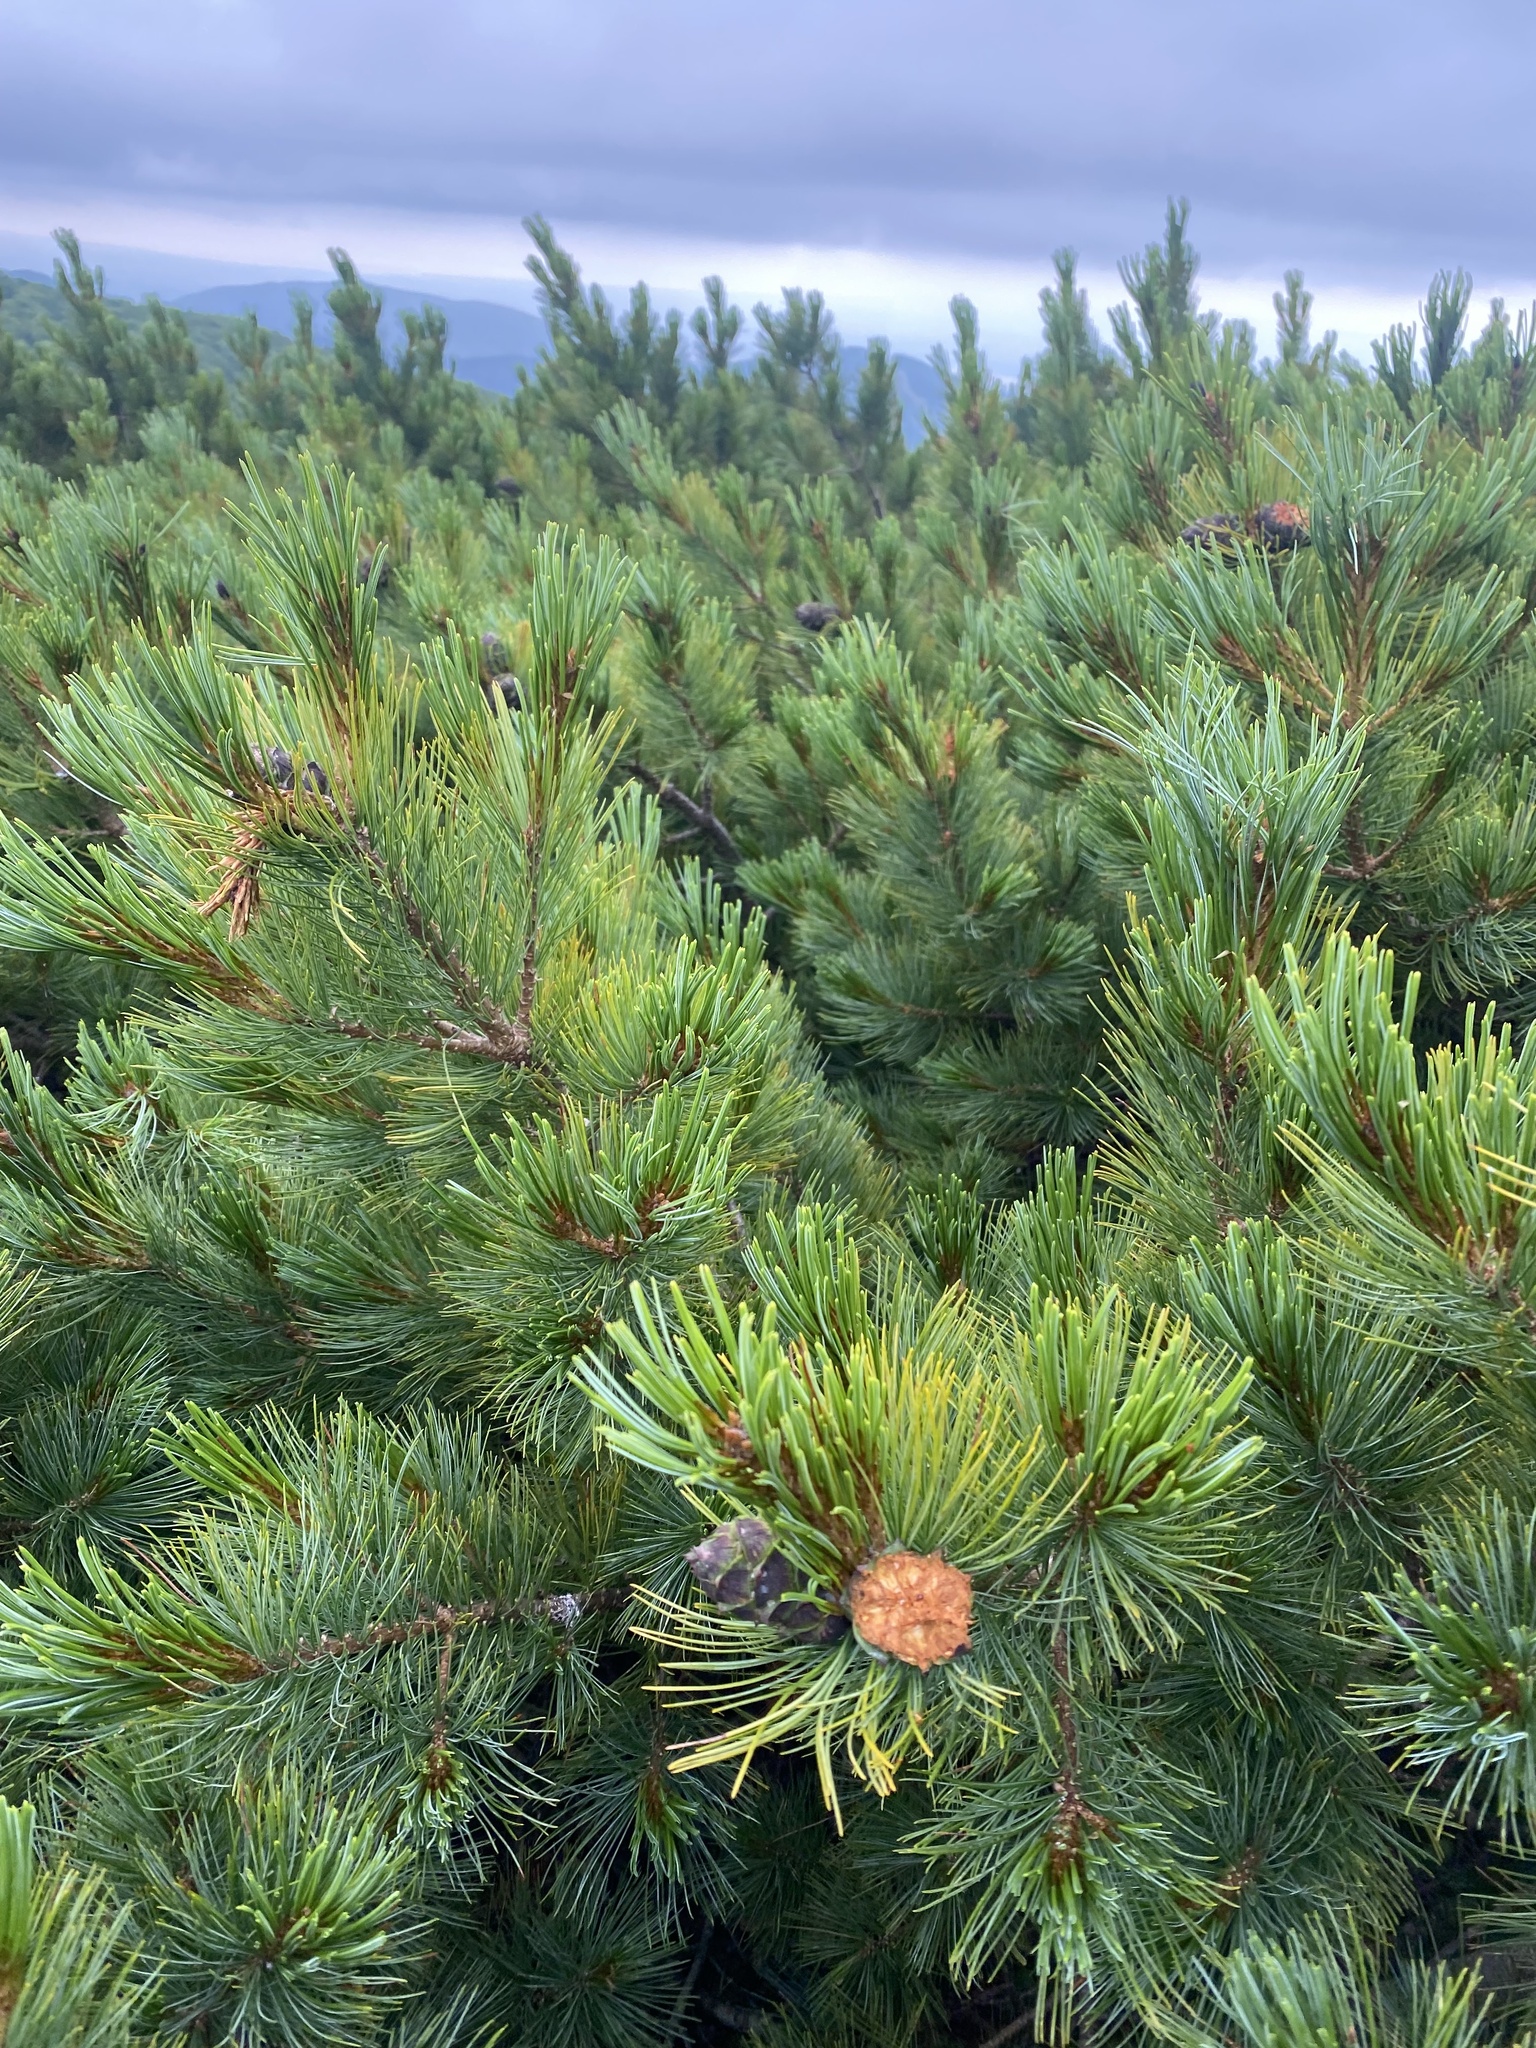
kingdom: Plantae
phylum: Tracheophyta
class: Pinopsida
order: Pinales
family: Pinaceae
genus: Pinus
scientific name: Pinus pumila
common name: Dwarf siberian pine
